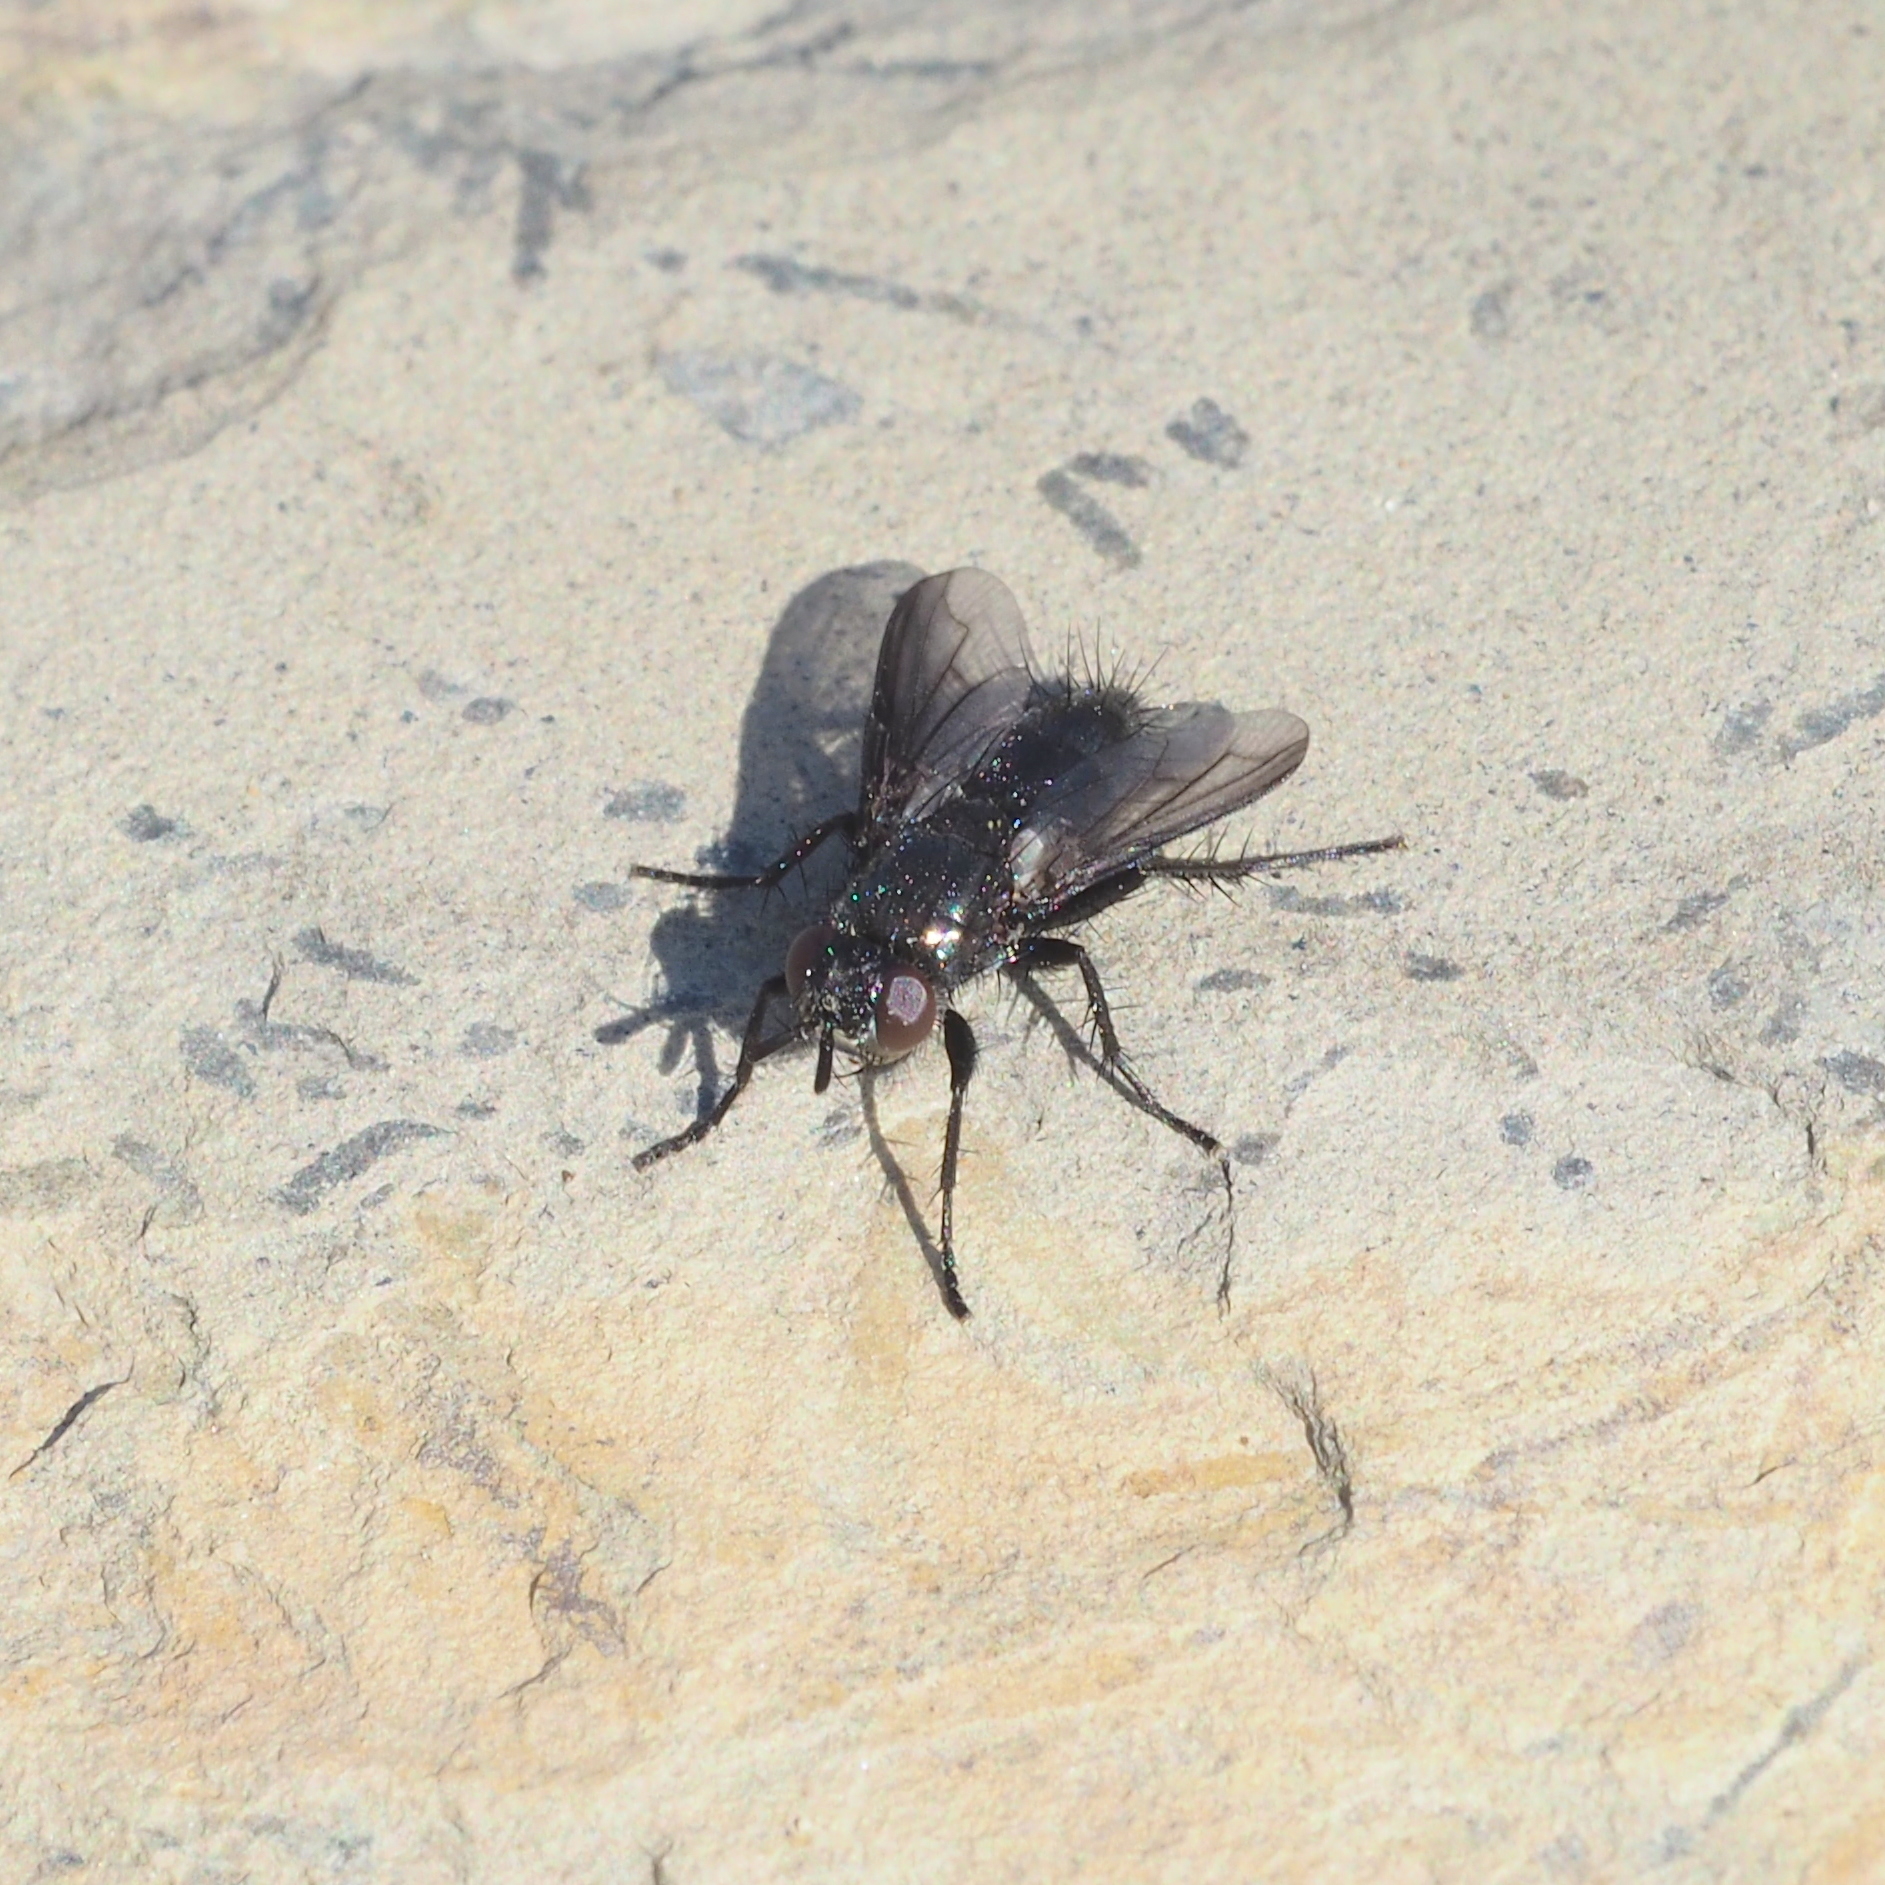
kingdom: Animalia
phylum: Arthropoda
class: Insecta
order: Diptera
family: Tachinidae
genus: Periscepsia
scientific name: Periscepsia carbonaria
